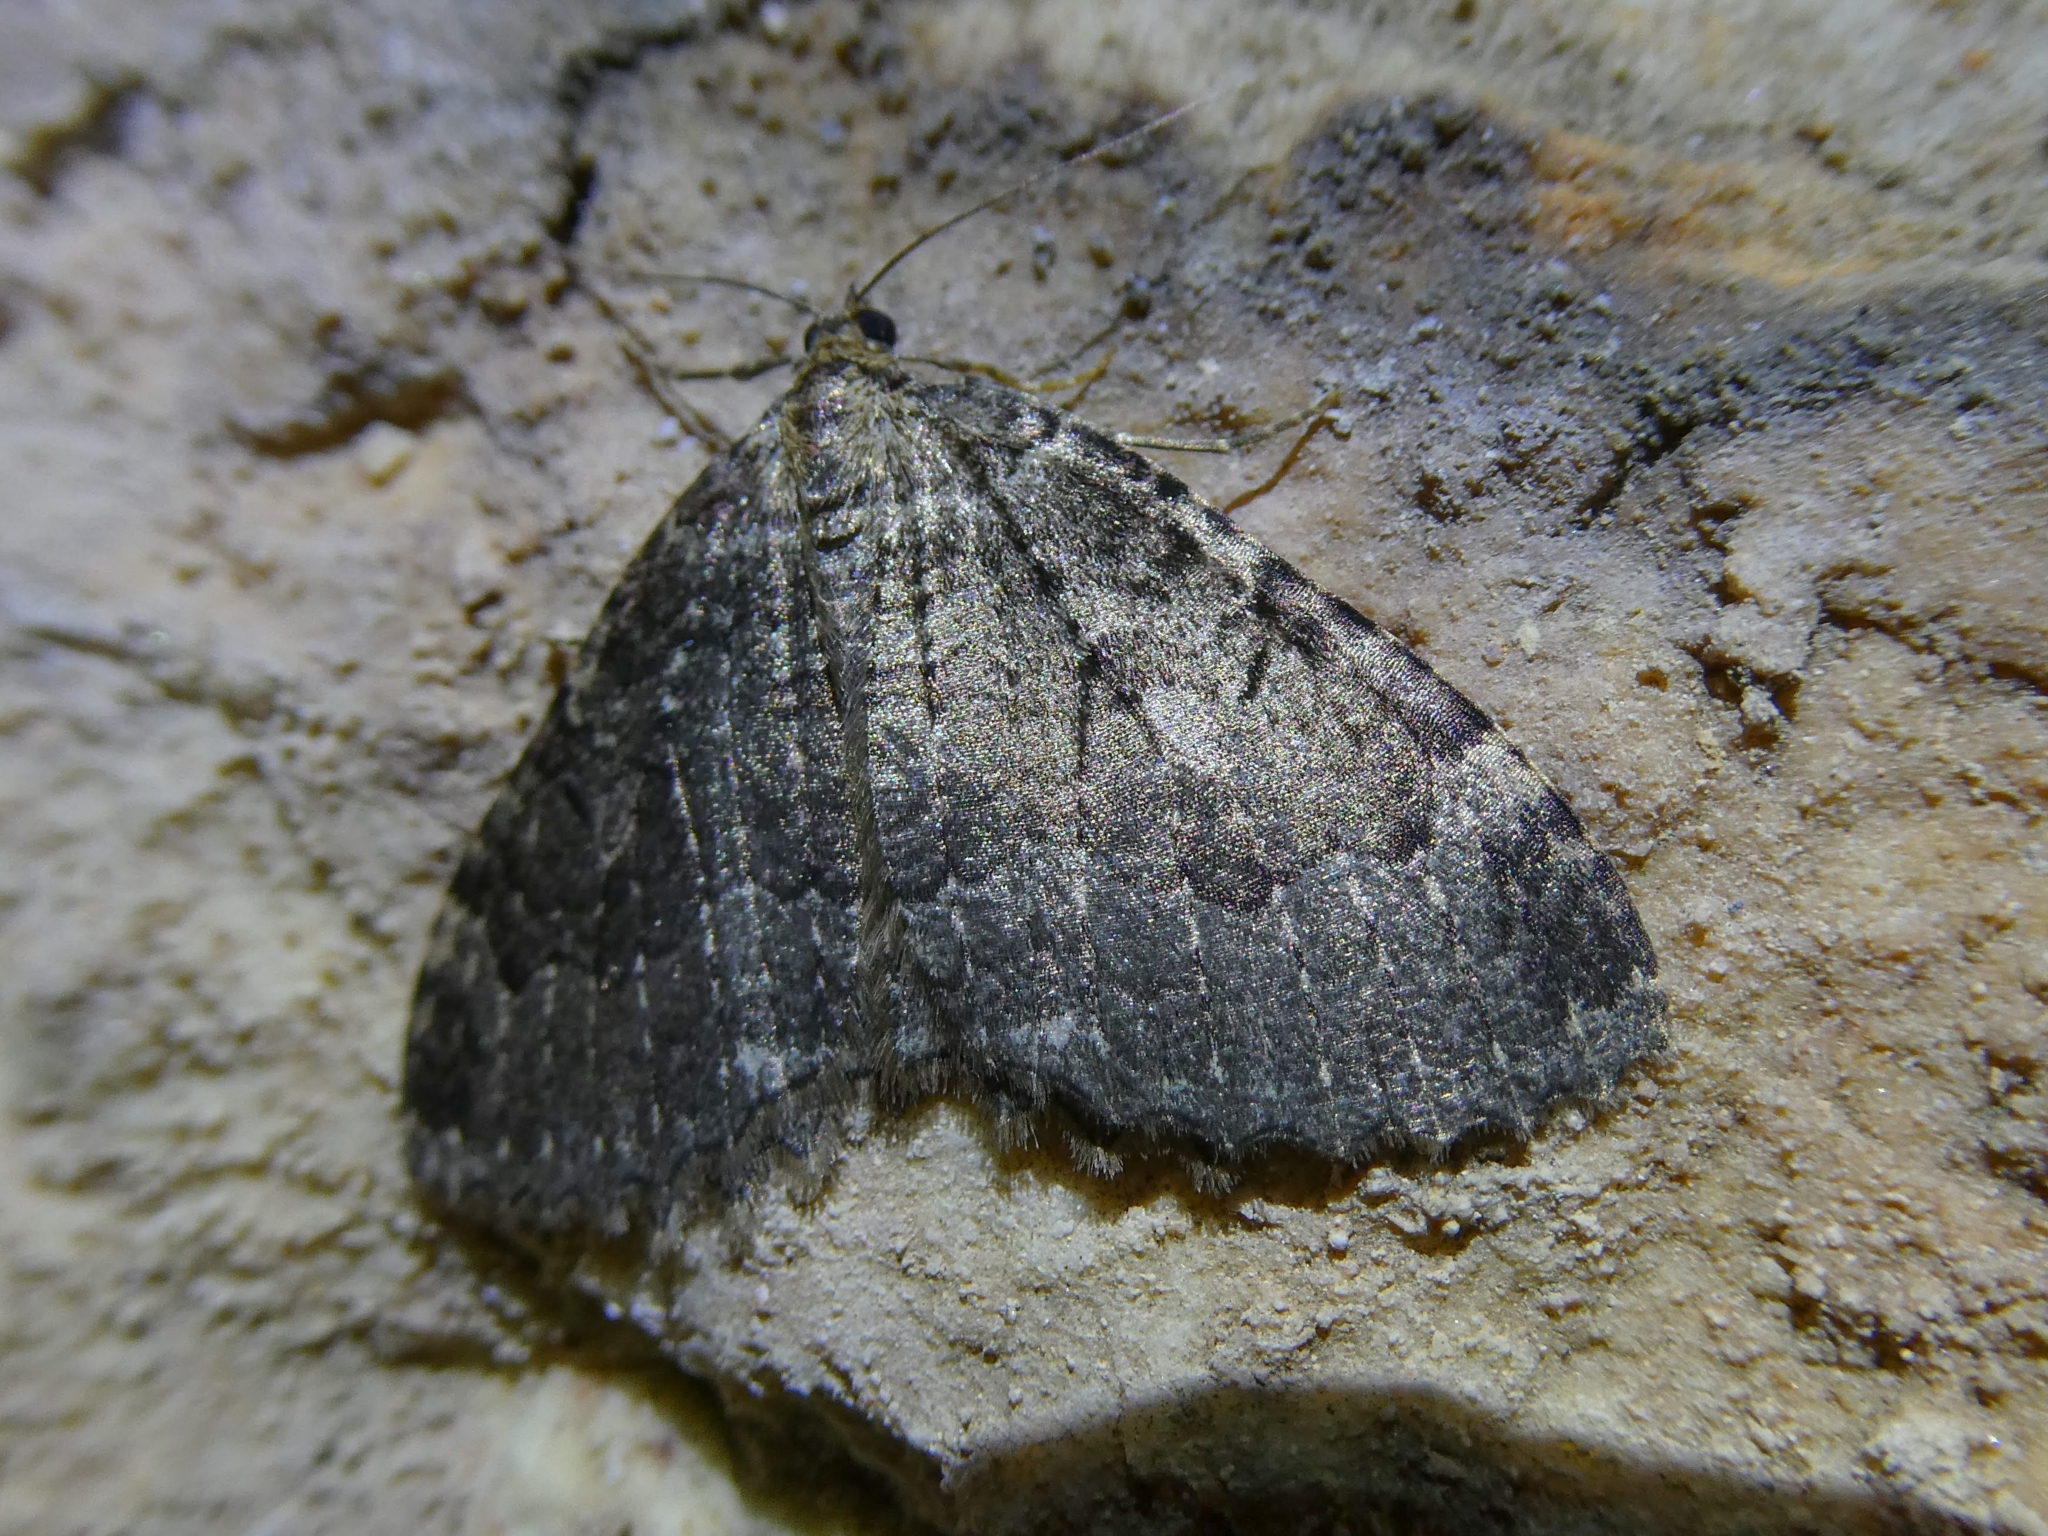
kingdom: Animalia
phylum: Arthropoda
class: Insecta
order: Lepidoptera
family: Geometridae
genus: Triphosa
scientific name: Triphosa dubitata
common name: Tissue
